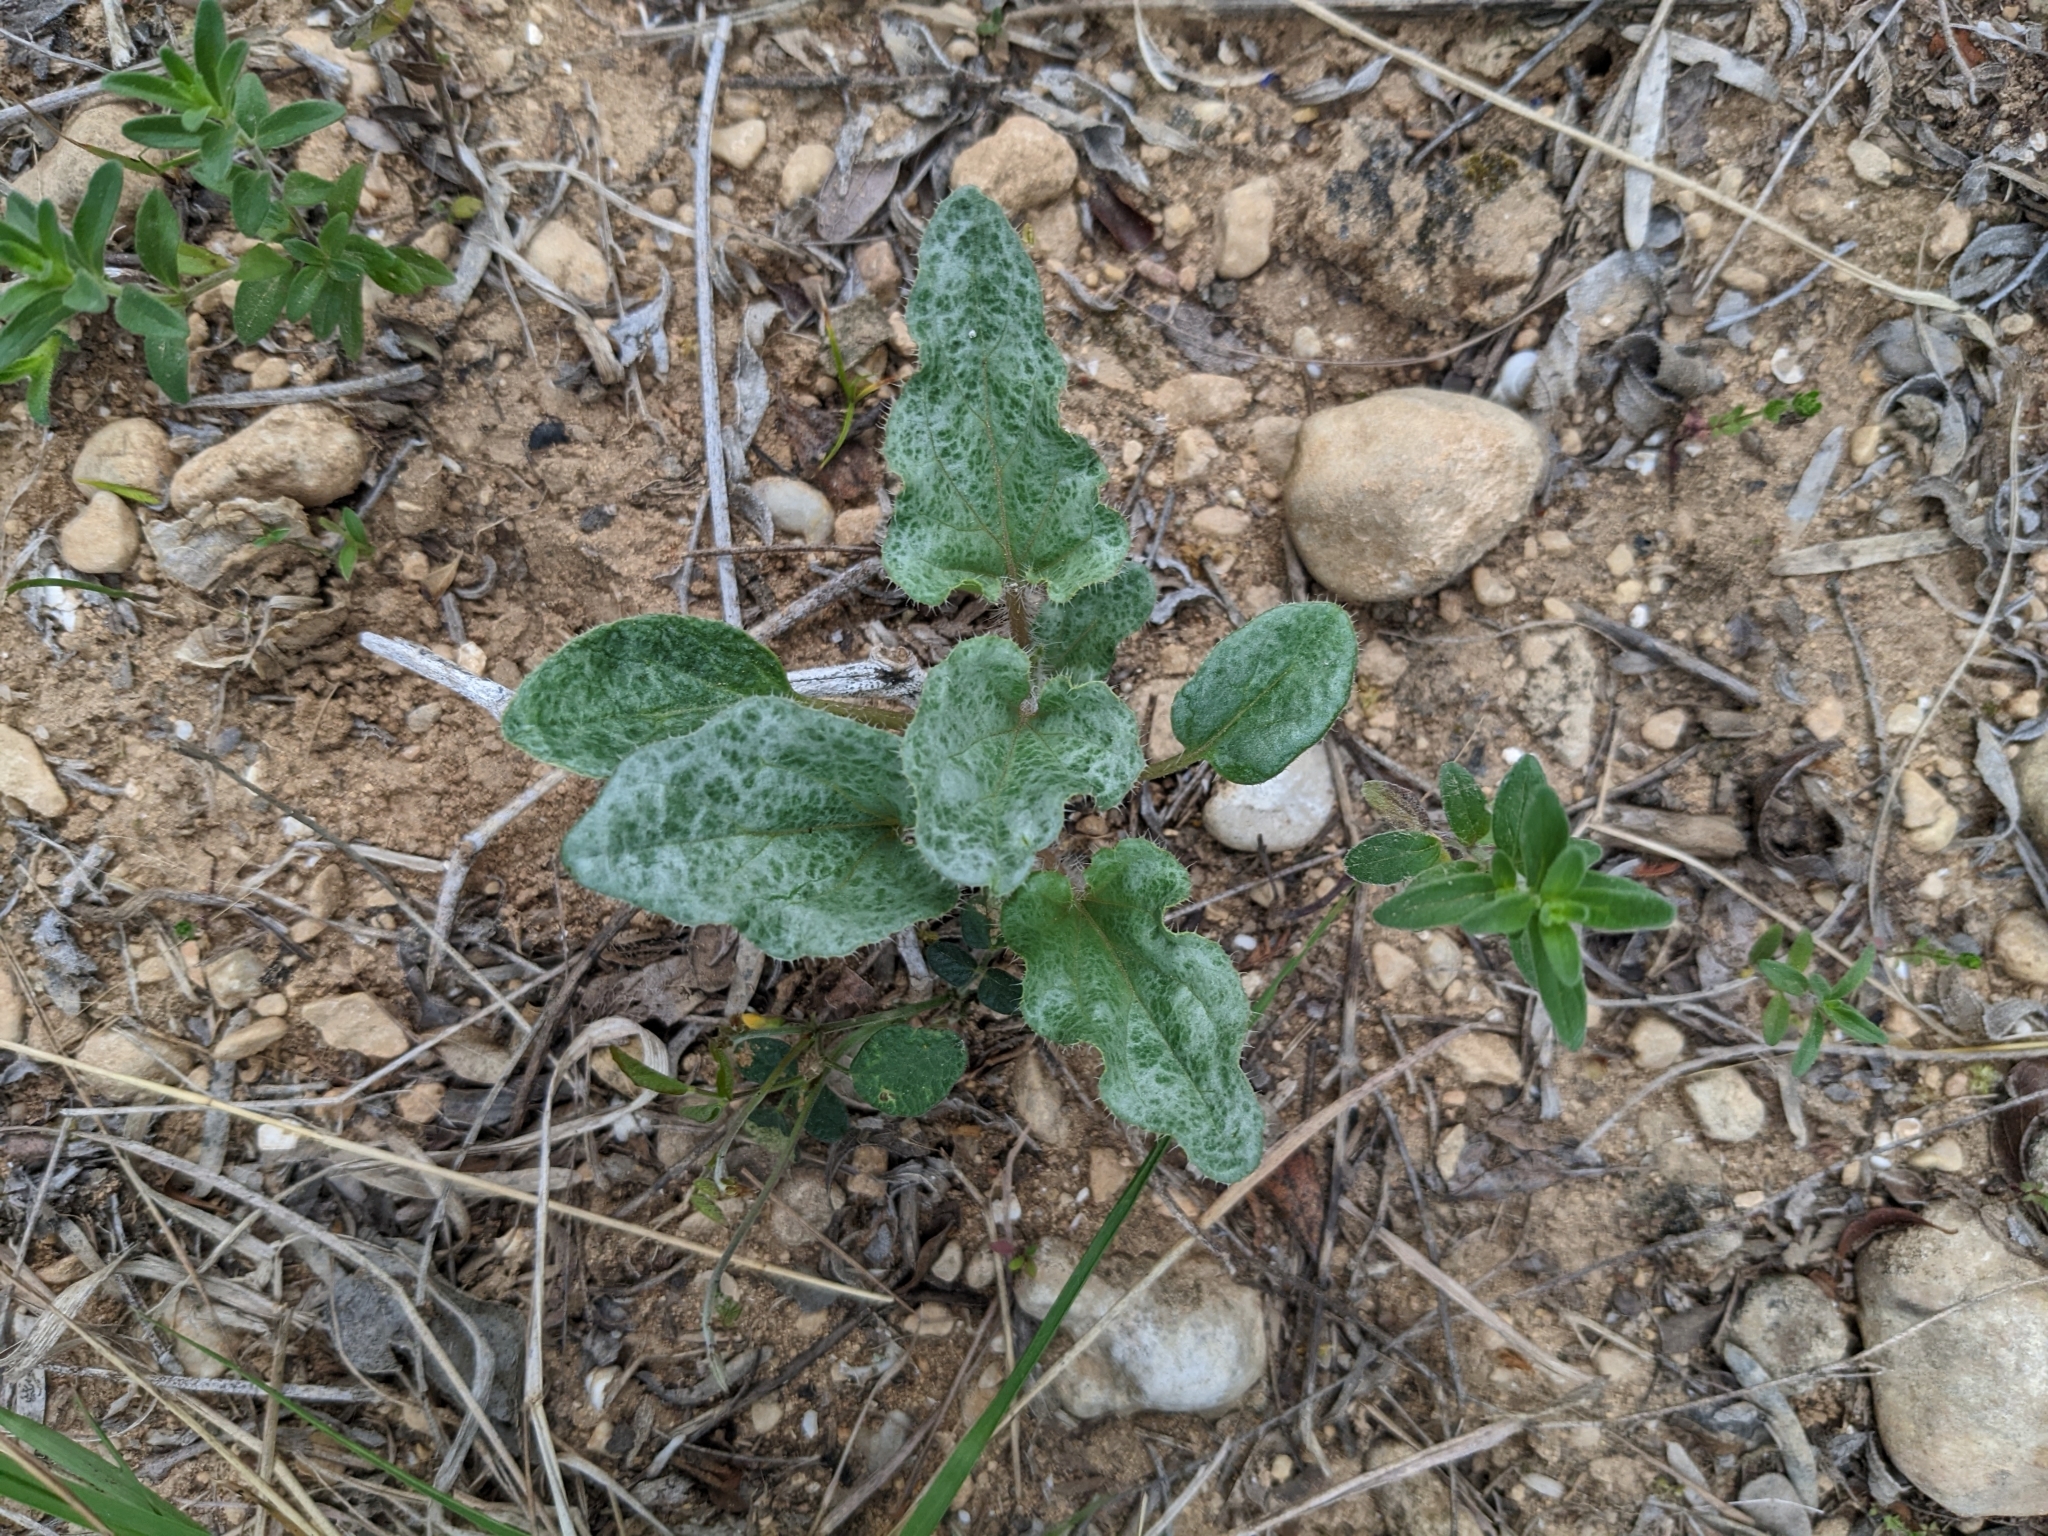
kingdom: Plantae
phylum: Tracheophyta
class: Magnoliopsida
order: Caryophyllales
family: Nyctaginaceae
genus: Nyctaginia
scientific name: Nyctaginia capitata
